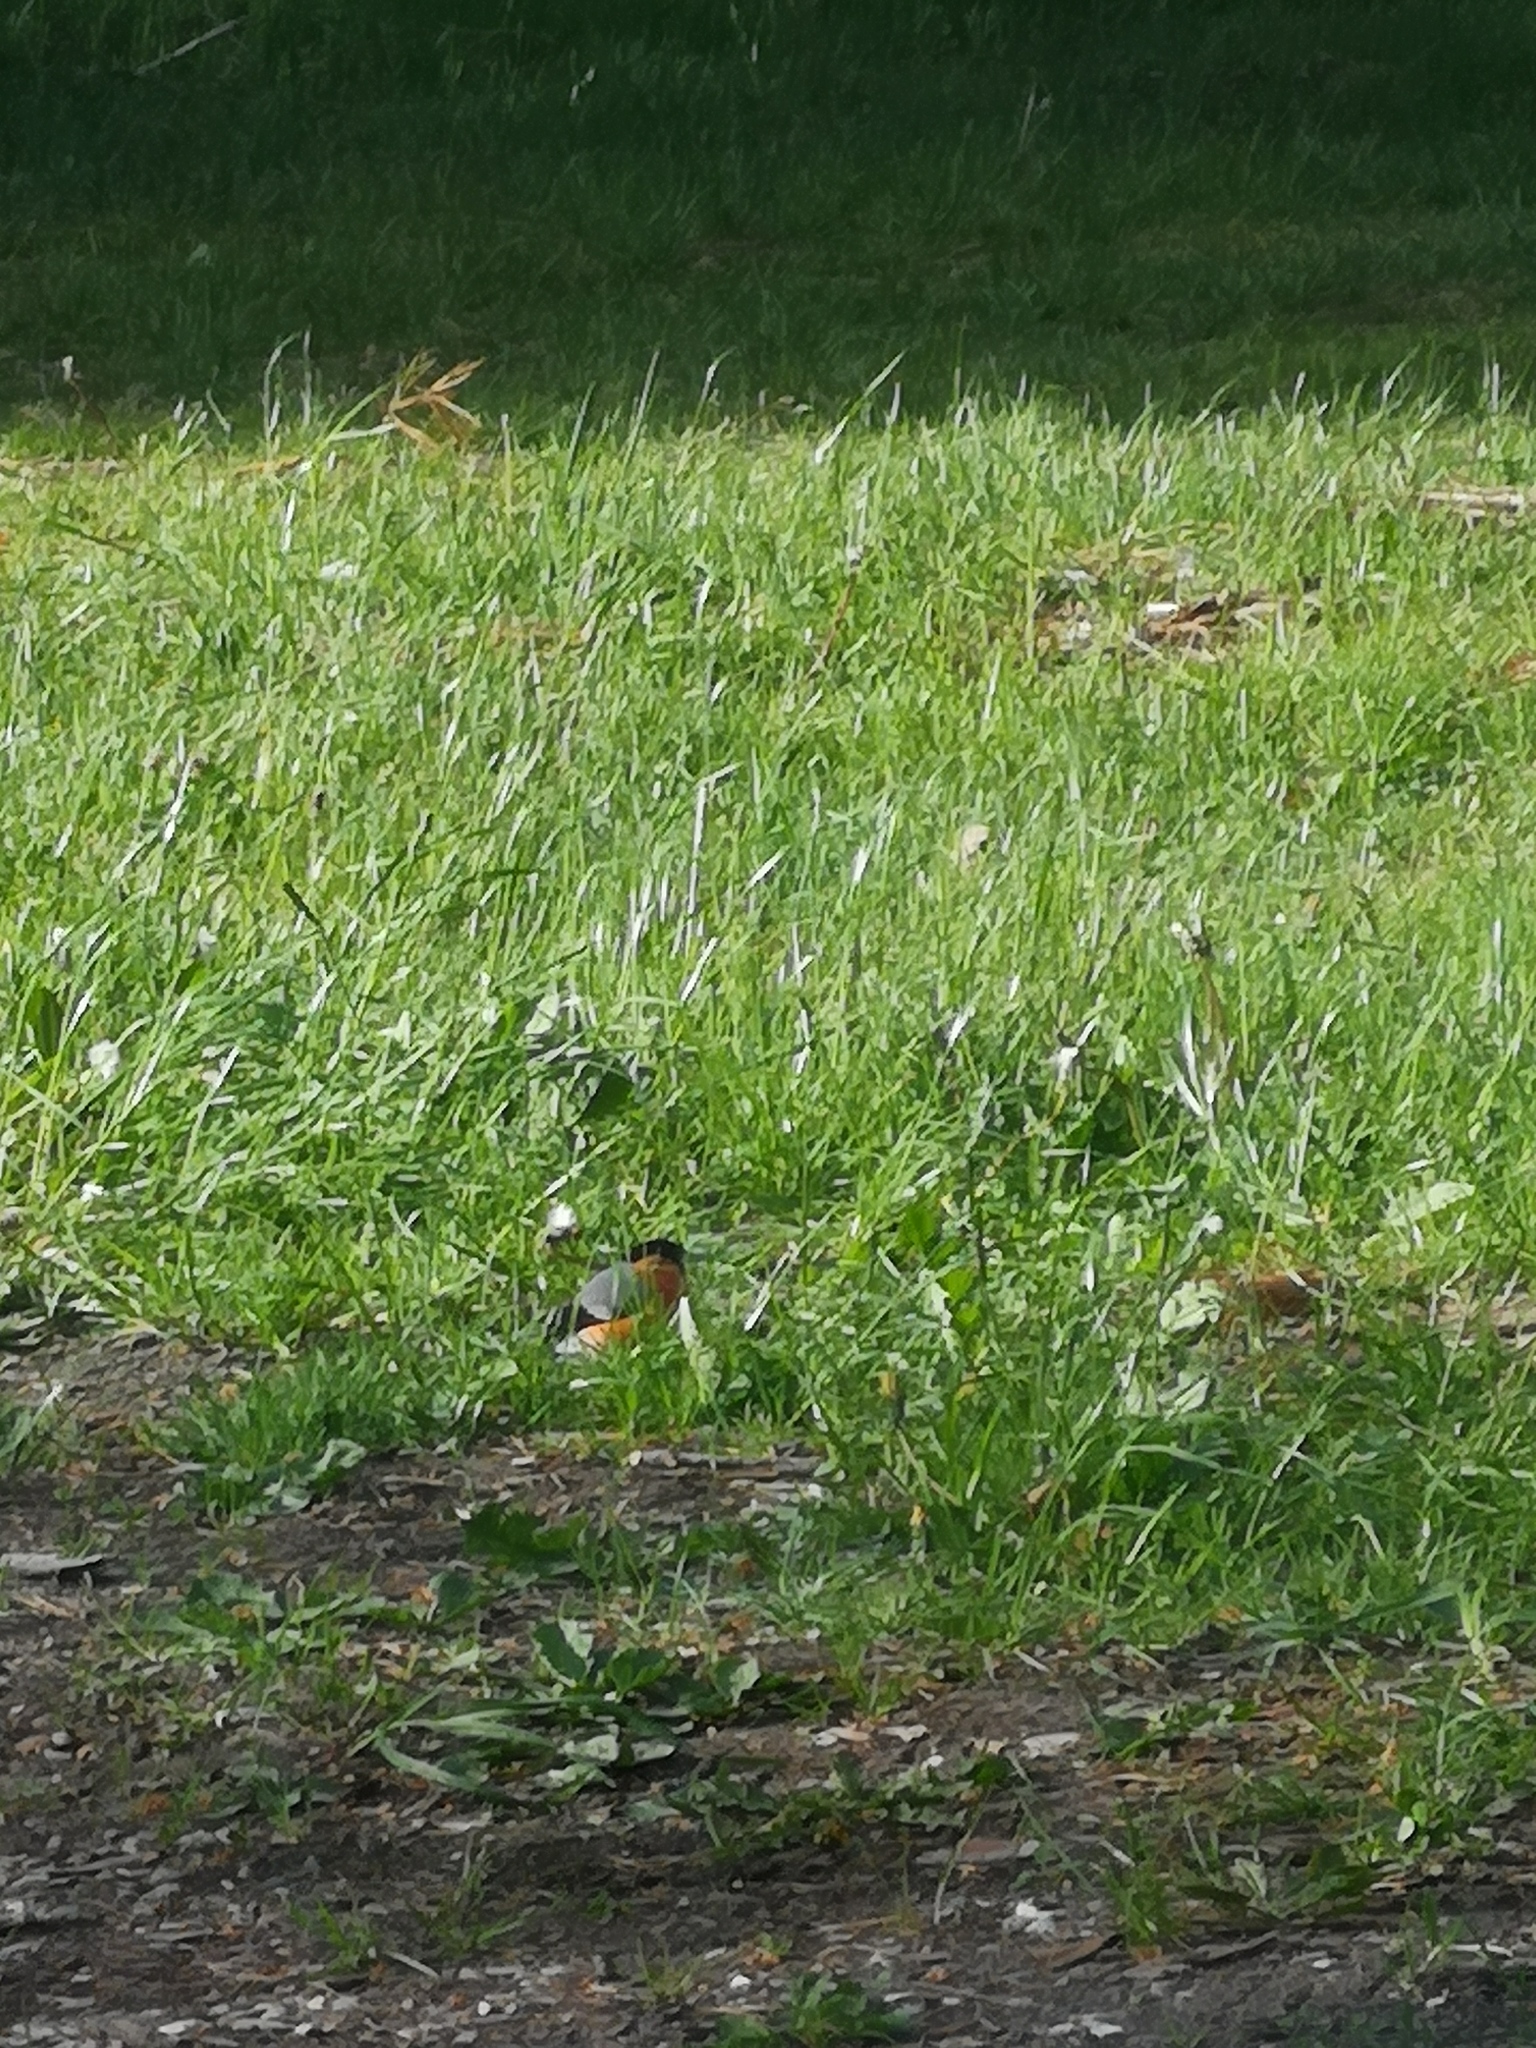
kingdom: Animalia
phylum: Chordata
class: Aves
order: Passeriformes
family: Fringillidae
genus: Pyrrhula
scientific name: Pyrrhula pyrrhula
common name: Eurasian bullfinch
